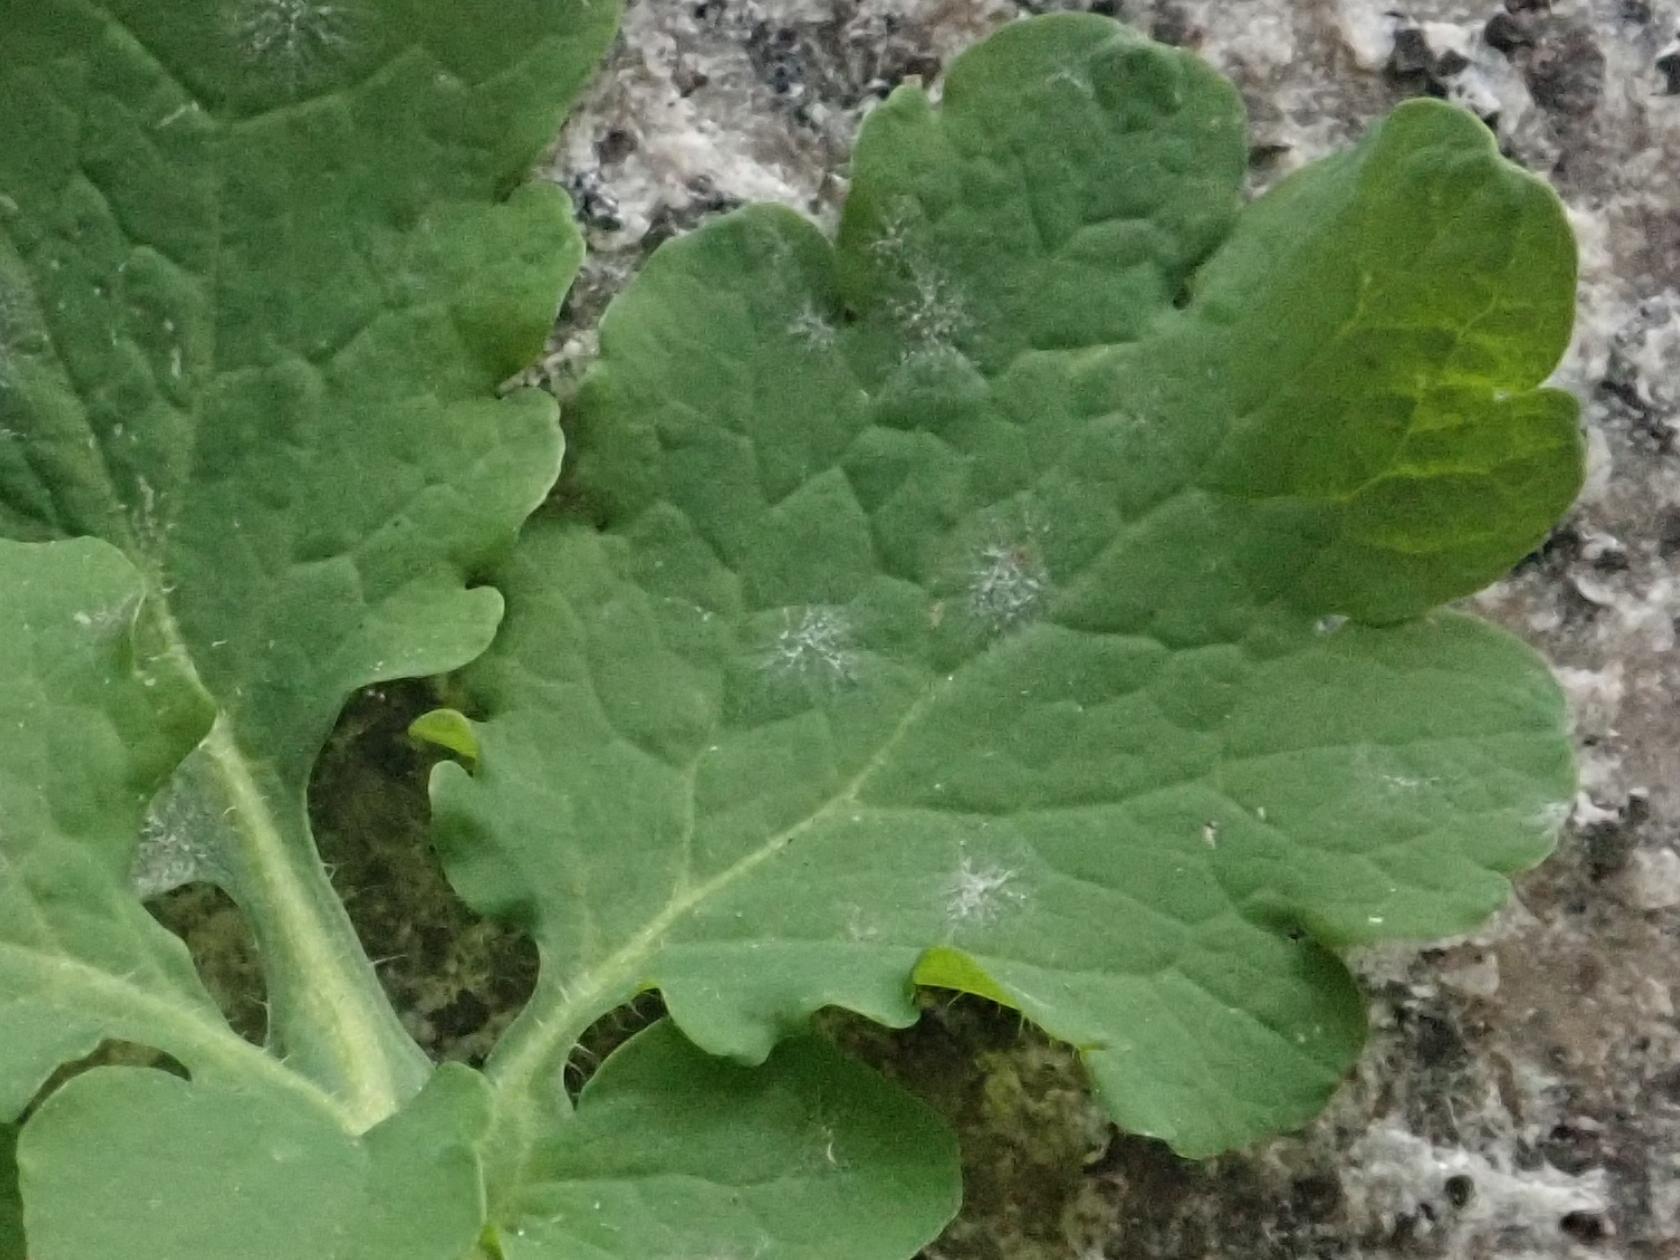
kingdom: Fungi
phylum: Ascomycota
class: Leotiomycetes
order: Helotiales
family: Erysiphaceae
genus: Erysiphe
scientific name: Erysiphe macleayae
